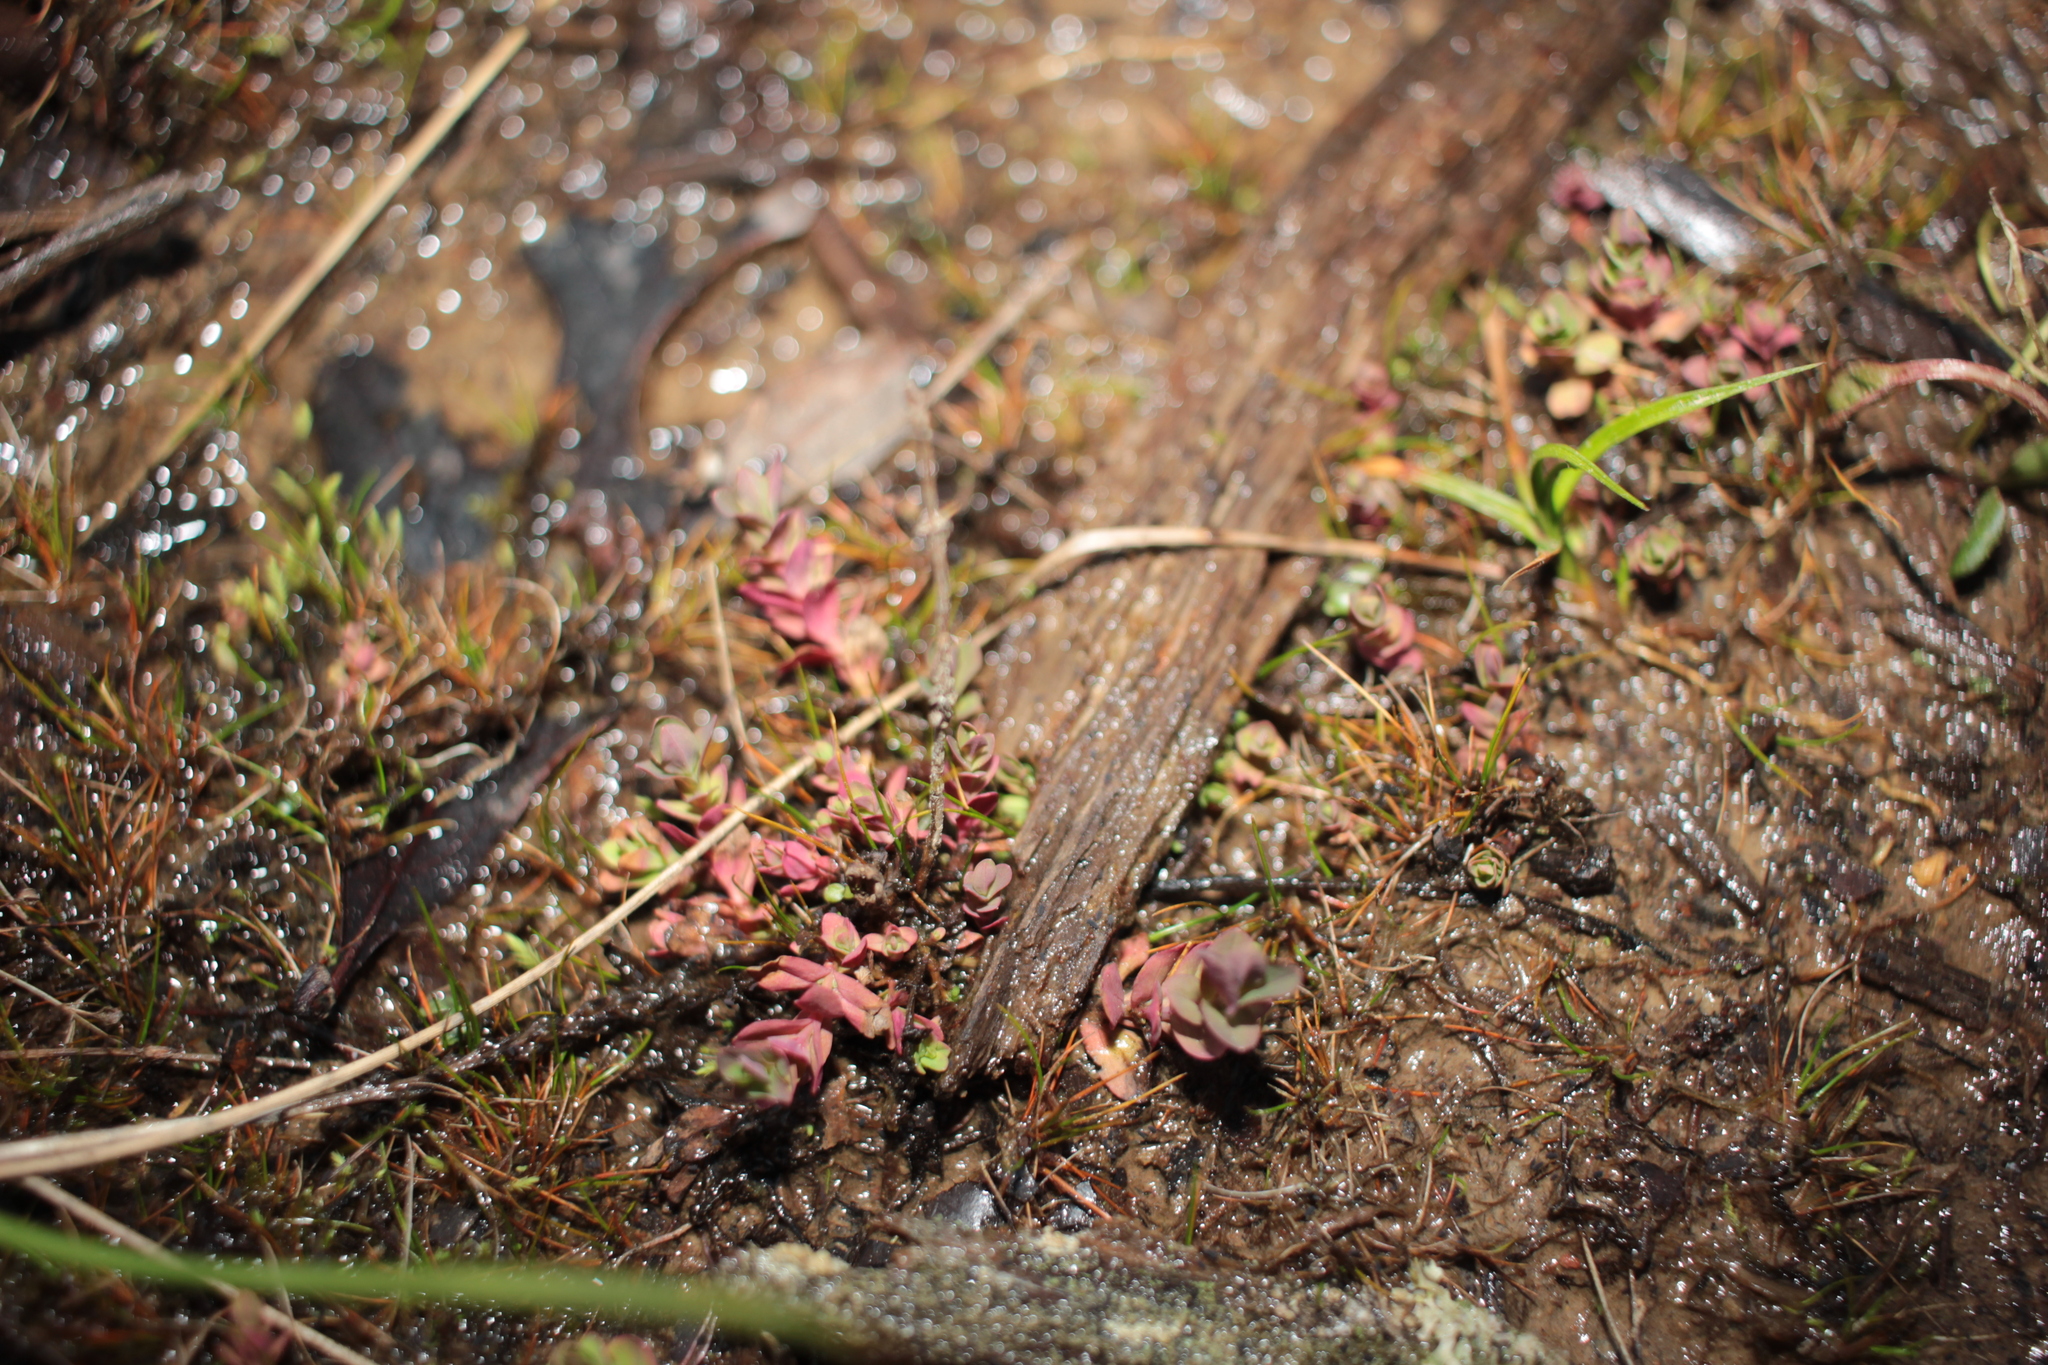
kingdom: Plantae
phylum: Tracheophyta
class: Magnoliopsida
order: Malpighiales
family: Hypericaceae
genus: Hypericum
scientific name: Hypericum mutilum
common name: Dwarf st. john's-wort
